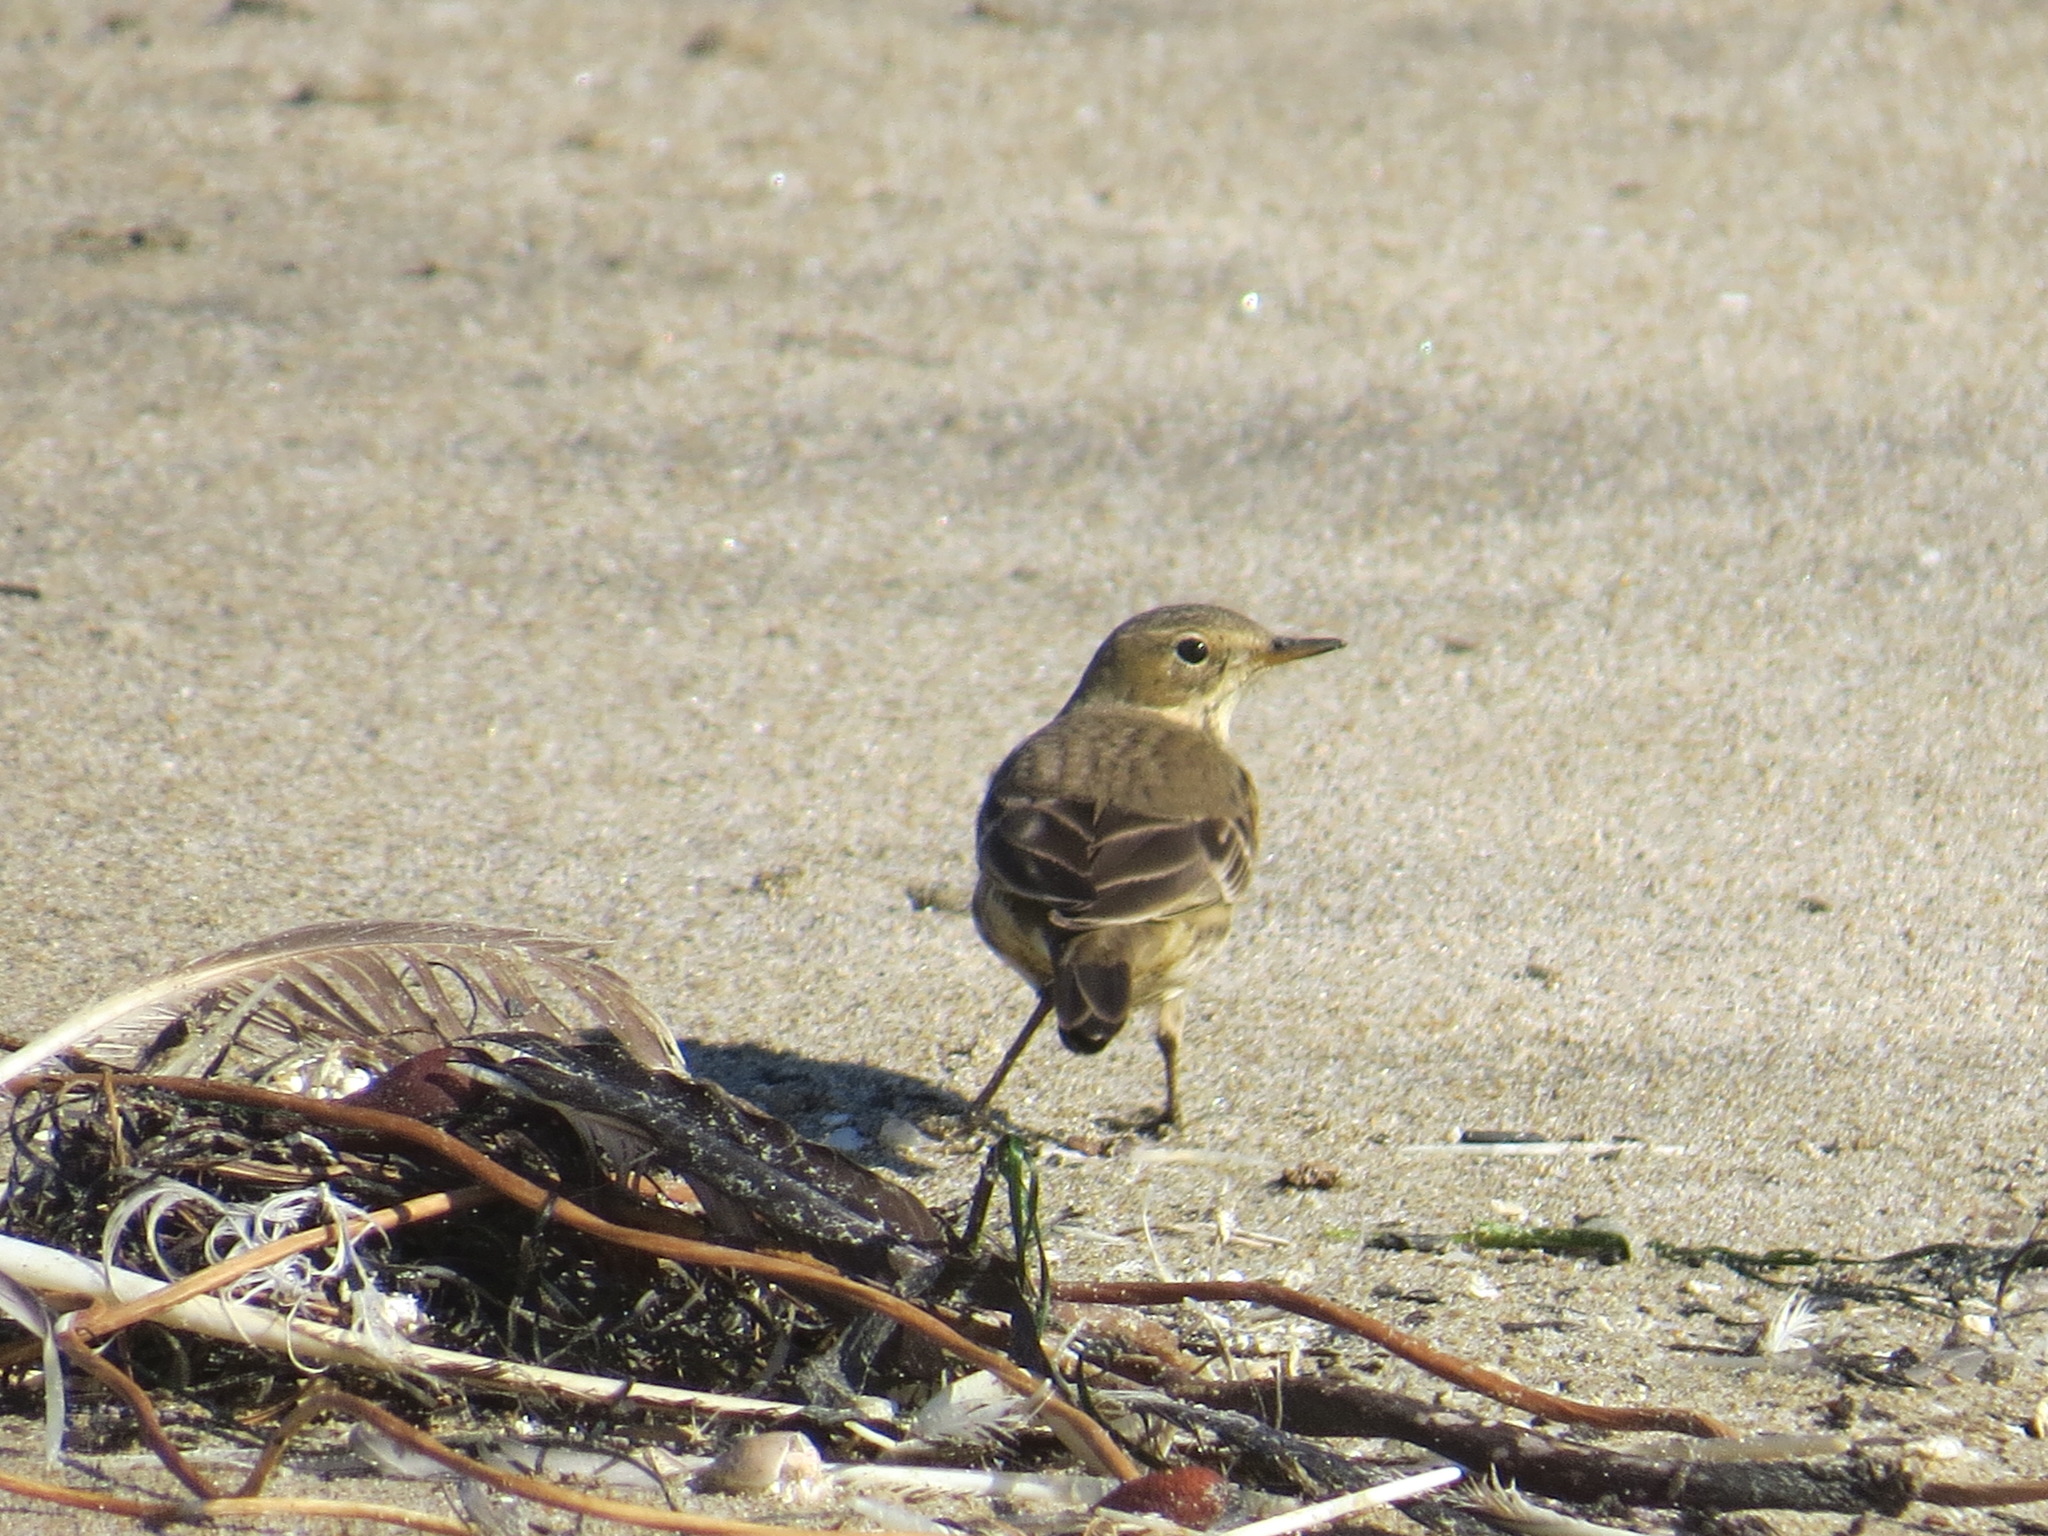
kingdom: Animalia
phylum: Chordata
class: Aves
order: Passeriformes
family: Motacillidae
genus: Anthus
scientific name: Anthus rubescens
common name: Buff-bellied pipit
